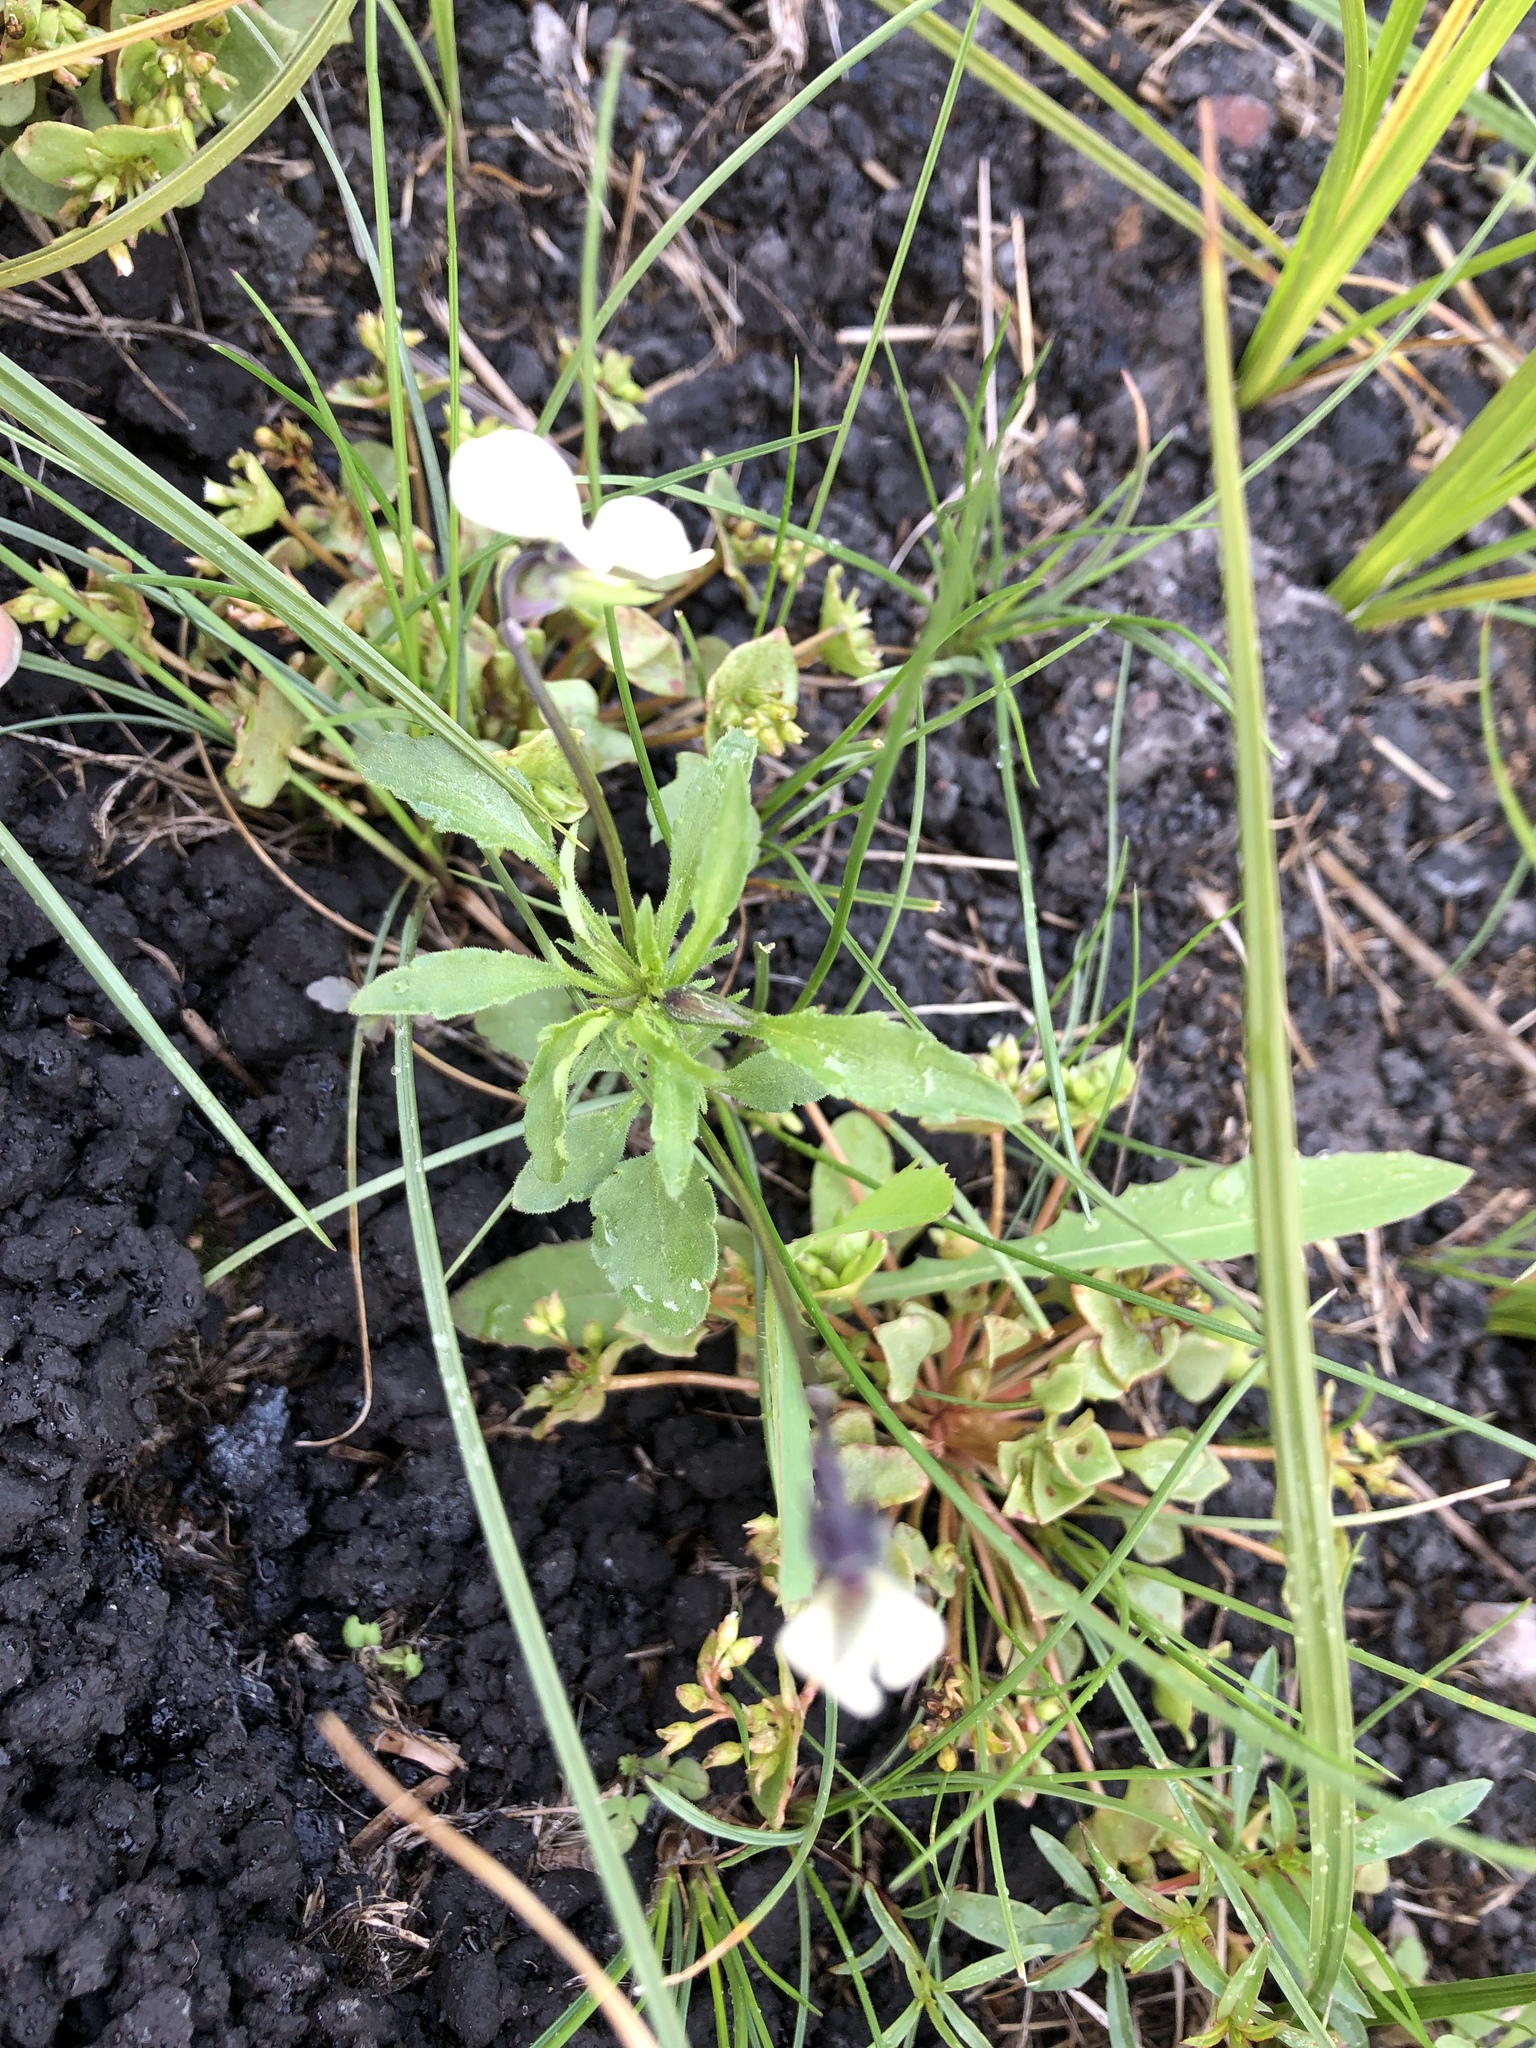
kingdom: Plantae
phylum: Tracheophyta
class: Magnoliopsida
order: Geraniales
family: Geraniaceae
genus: Erodium
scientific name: Erodium cicutarium
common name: Common stork's-bill
